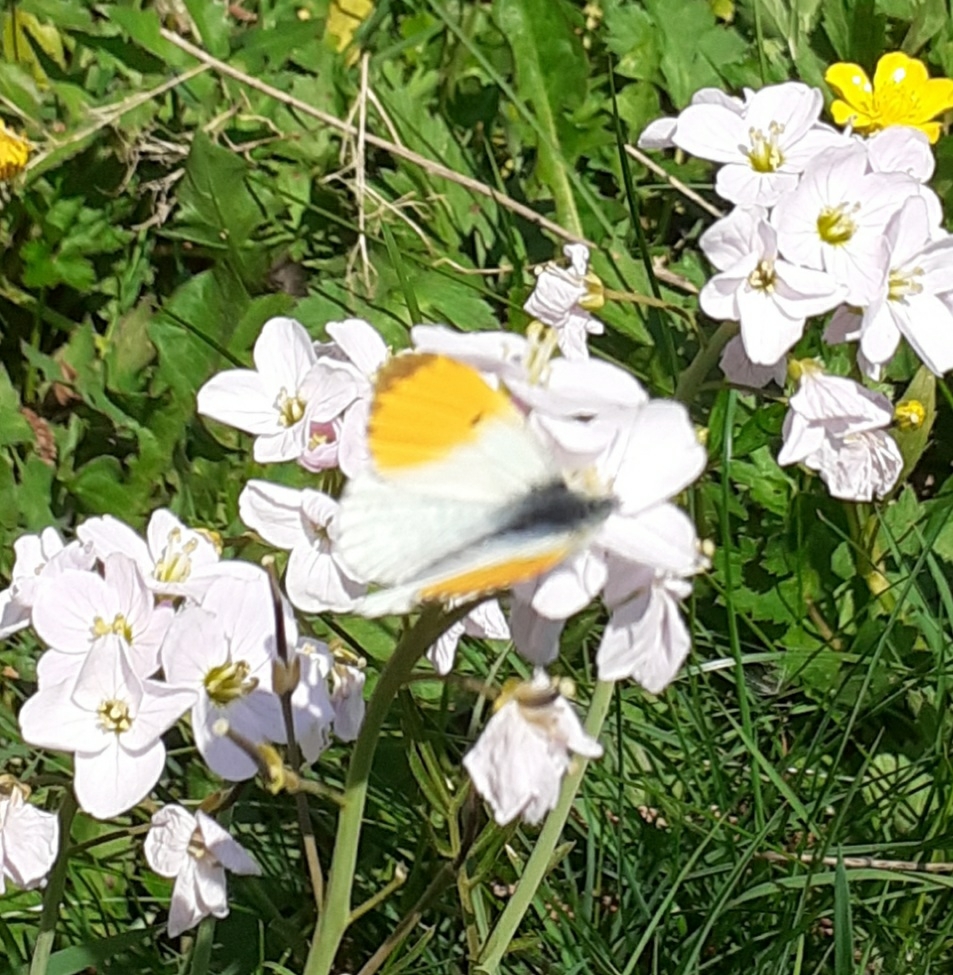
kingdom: Animalia
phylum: Arthropoda
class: Insecta
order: Lepidoptera
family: Pieridae
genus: Anthocharis
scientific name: Anthocharis cardamines
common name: Orange-tip
